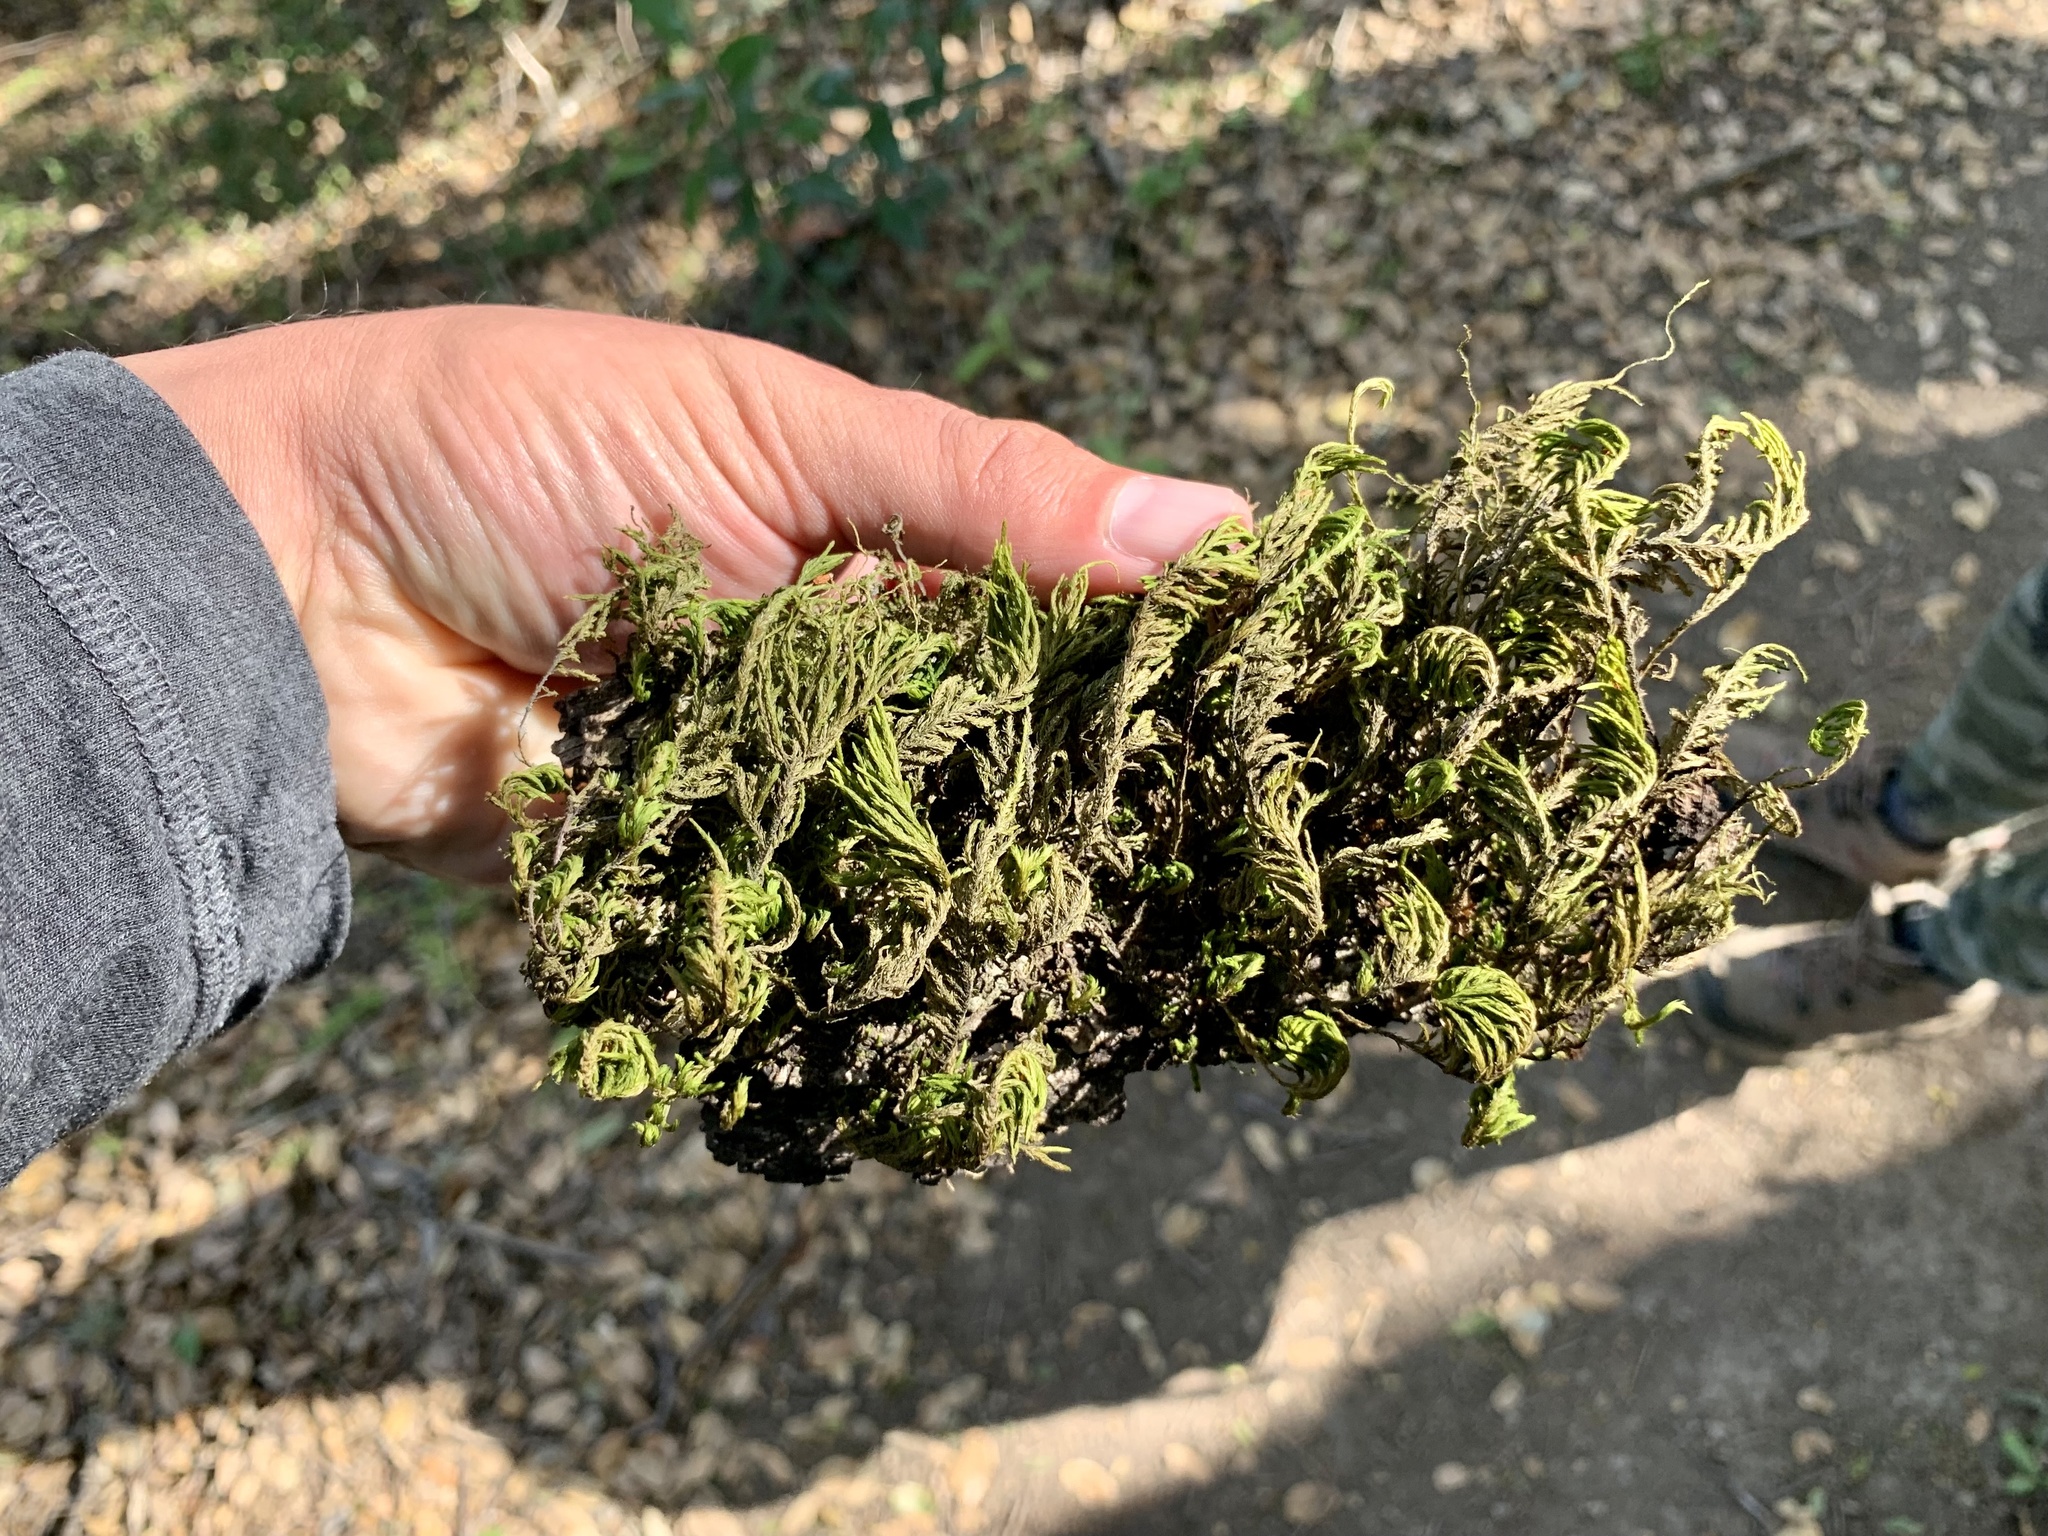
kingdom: Plantae
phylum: Bryophyta
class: Bryopsida
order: Hypnales
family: Cryphaeaceae
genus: Dendroalsia
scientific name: Dendroalsia abietina
